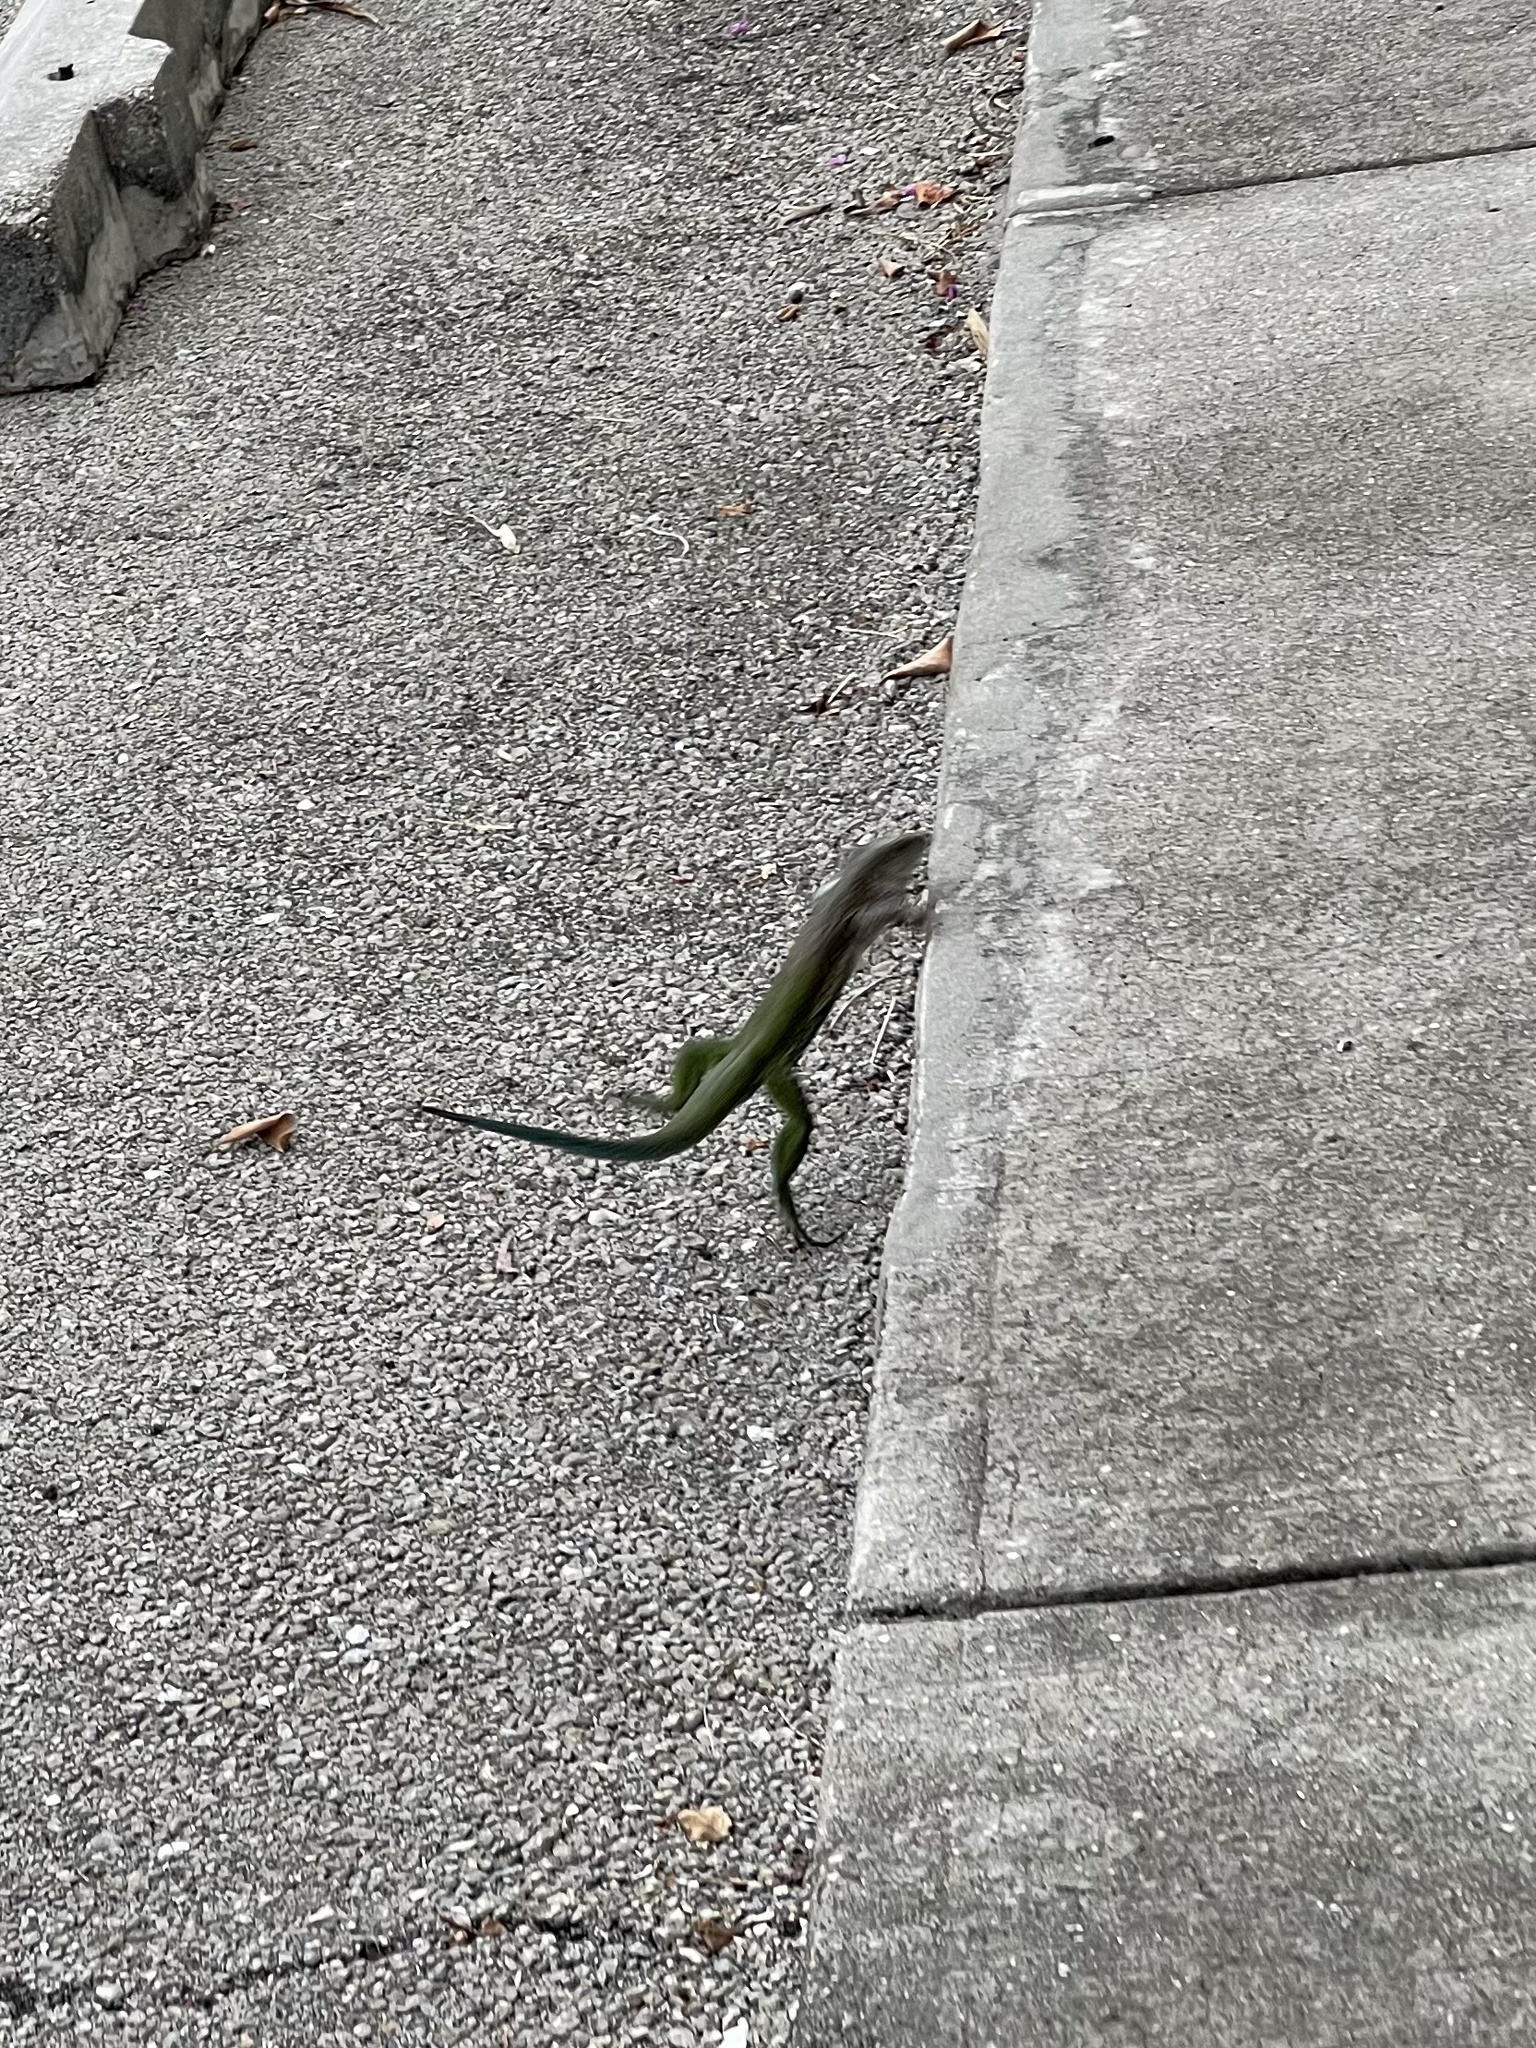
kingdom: Animalia
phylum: Chordata
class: Squamata
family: Teiidae
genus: Ameiva
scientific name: Ameiva ameiva
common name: Giant ameiva
